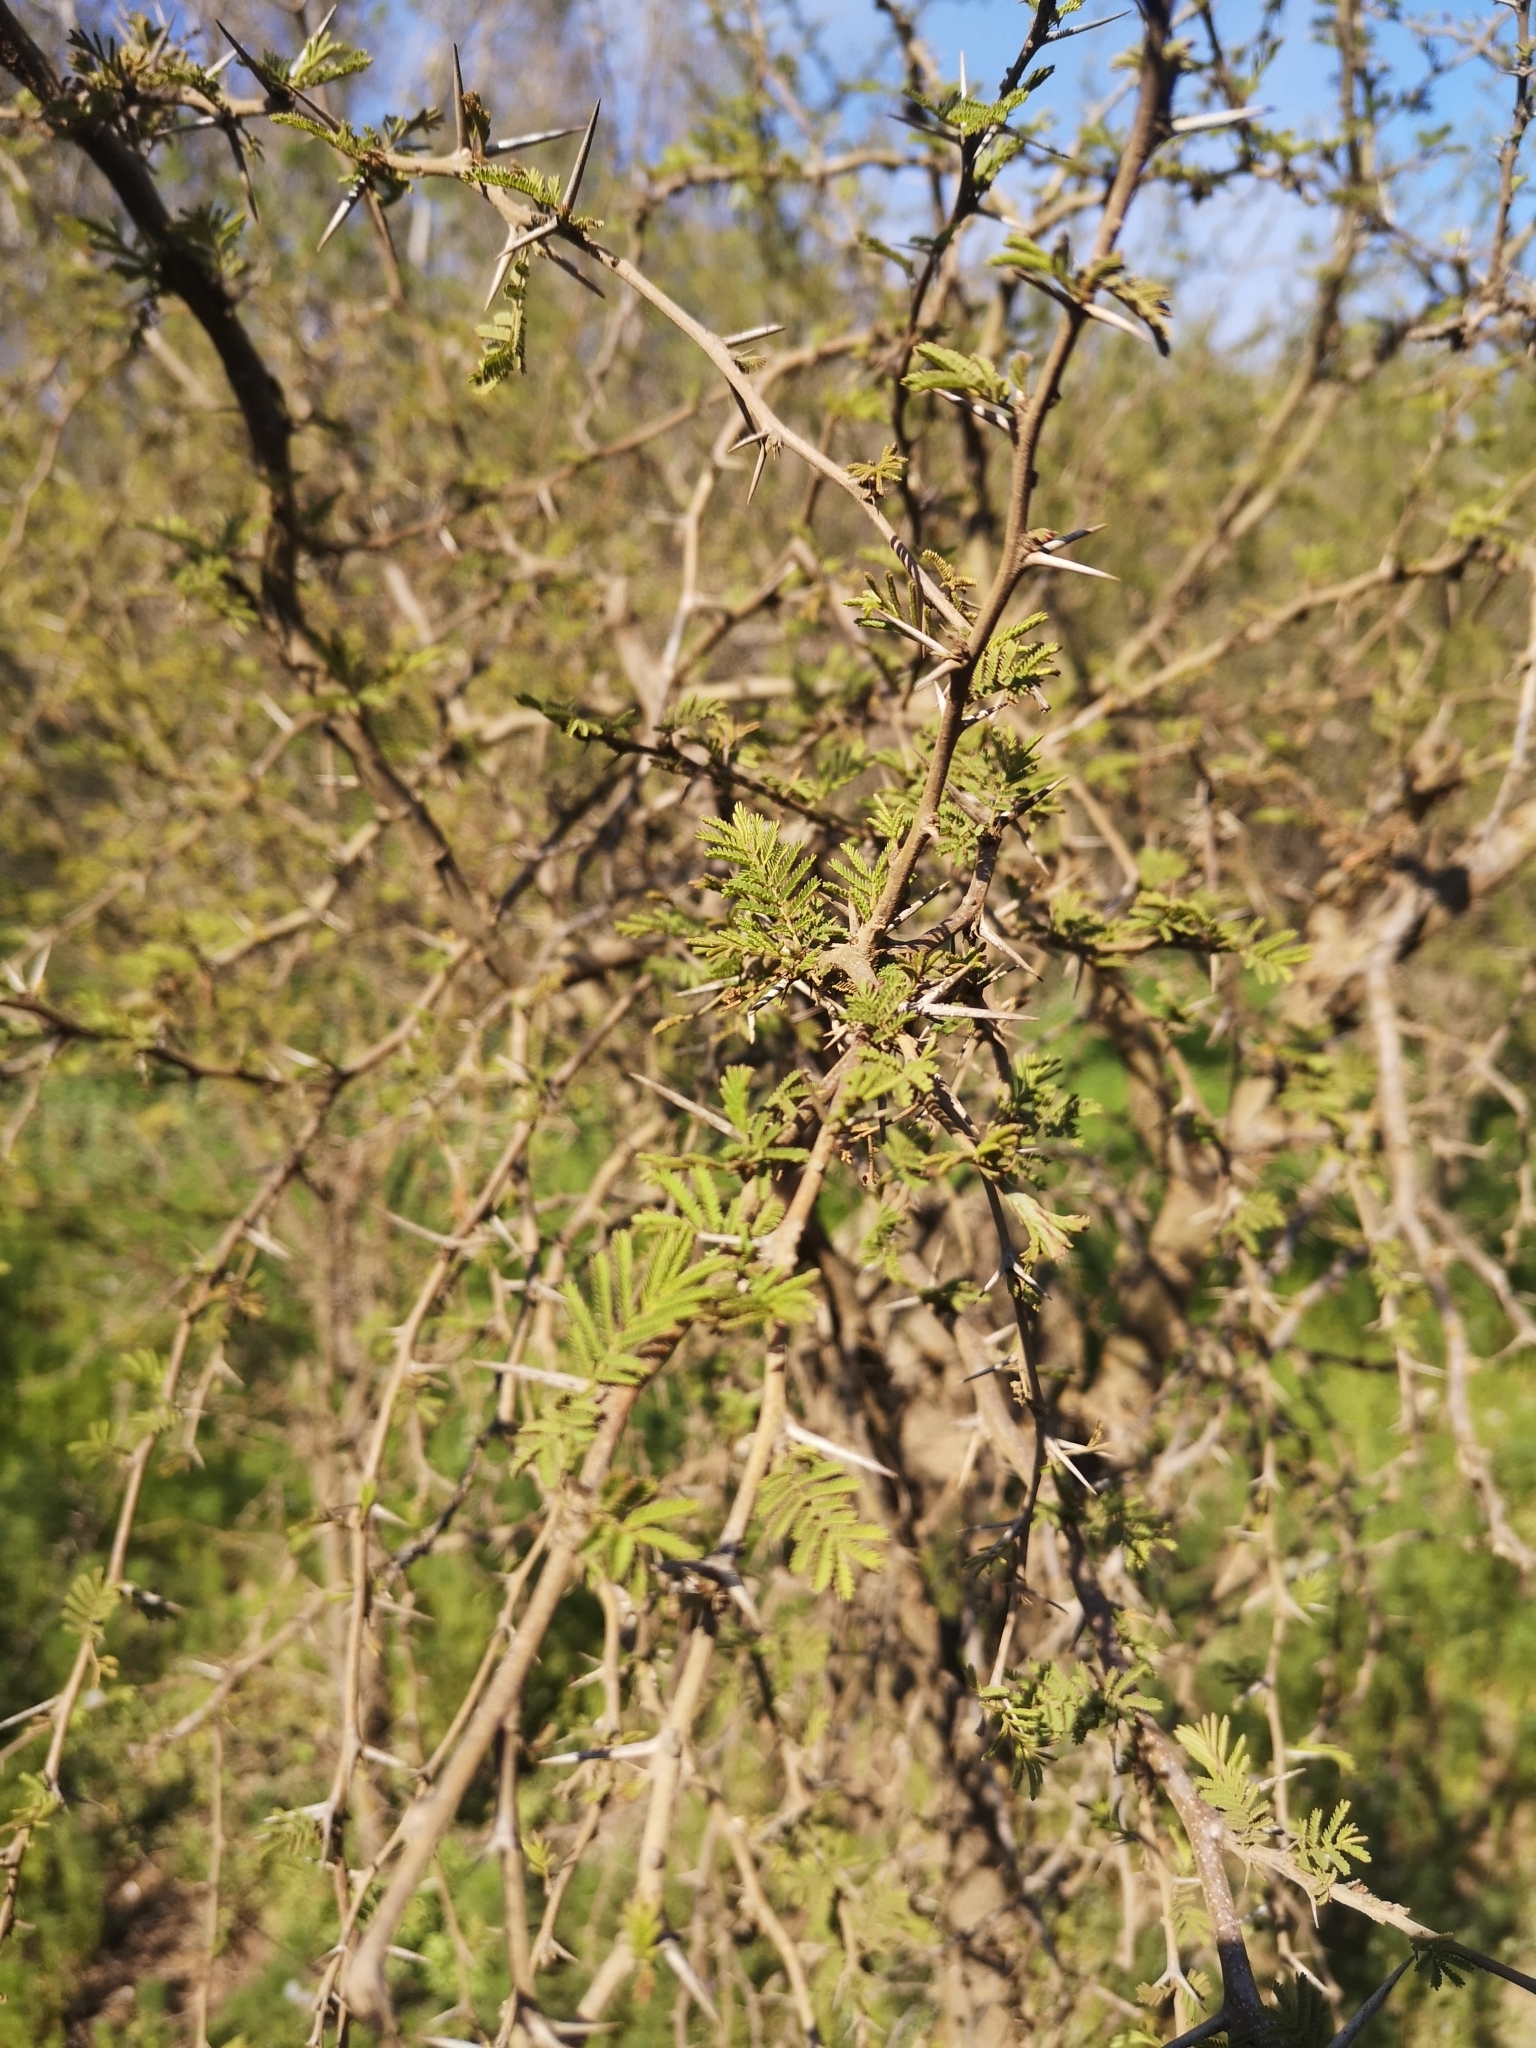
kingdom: Plantae
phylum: Tracheophyta
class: Magnoliopsida
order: Fabales
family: Fabaceae
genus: Vachellia
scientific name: Vachellia caven
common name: Roman cassie
